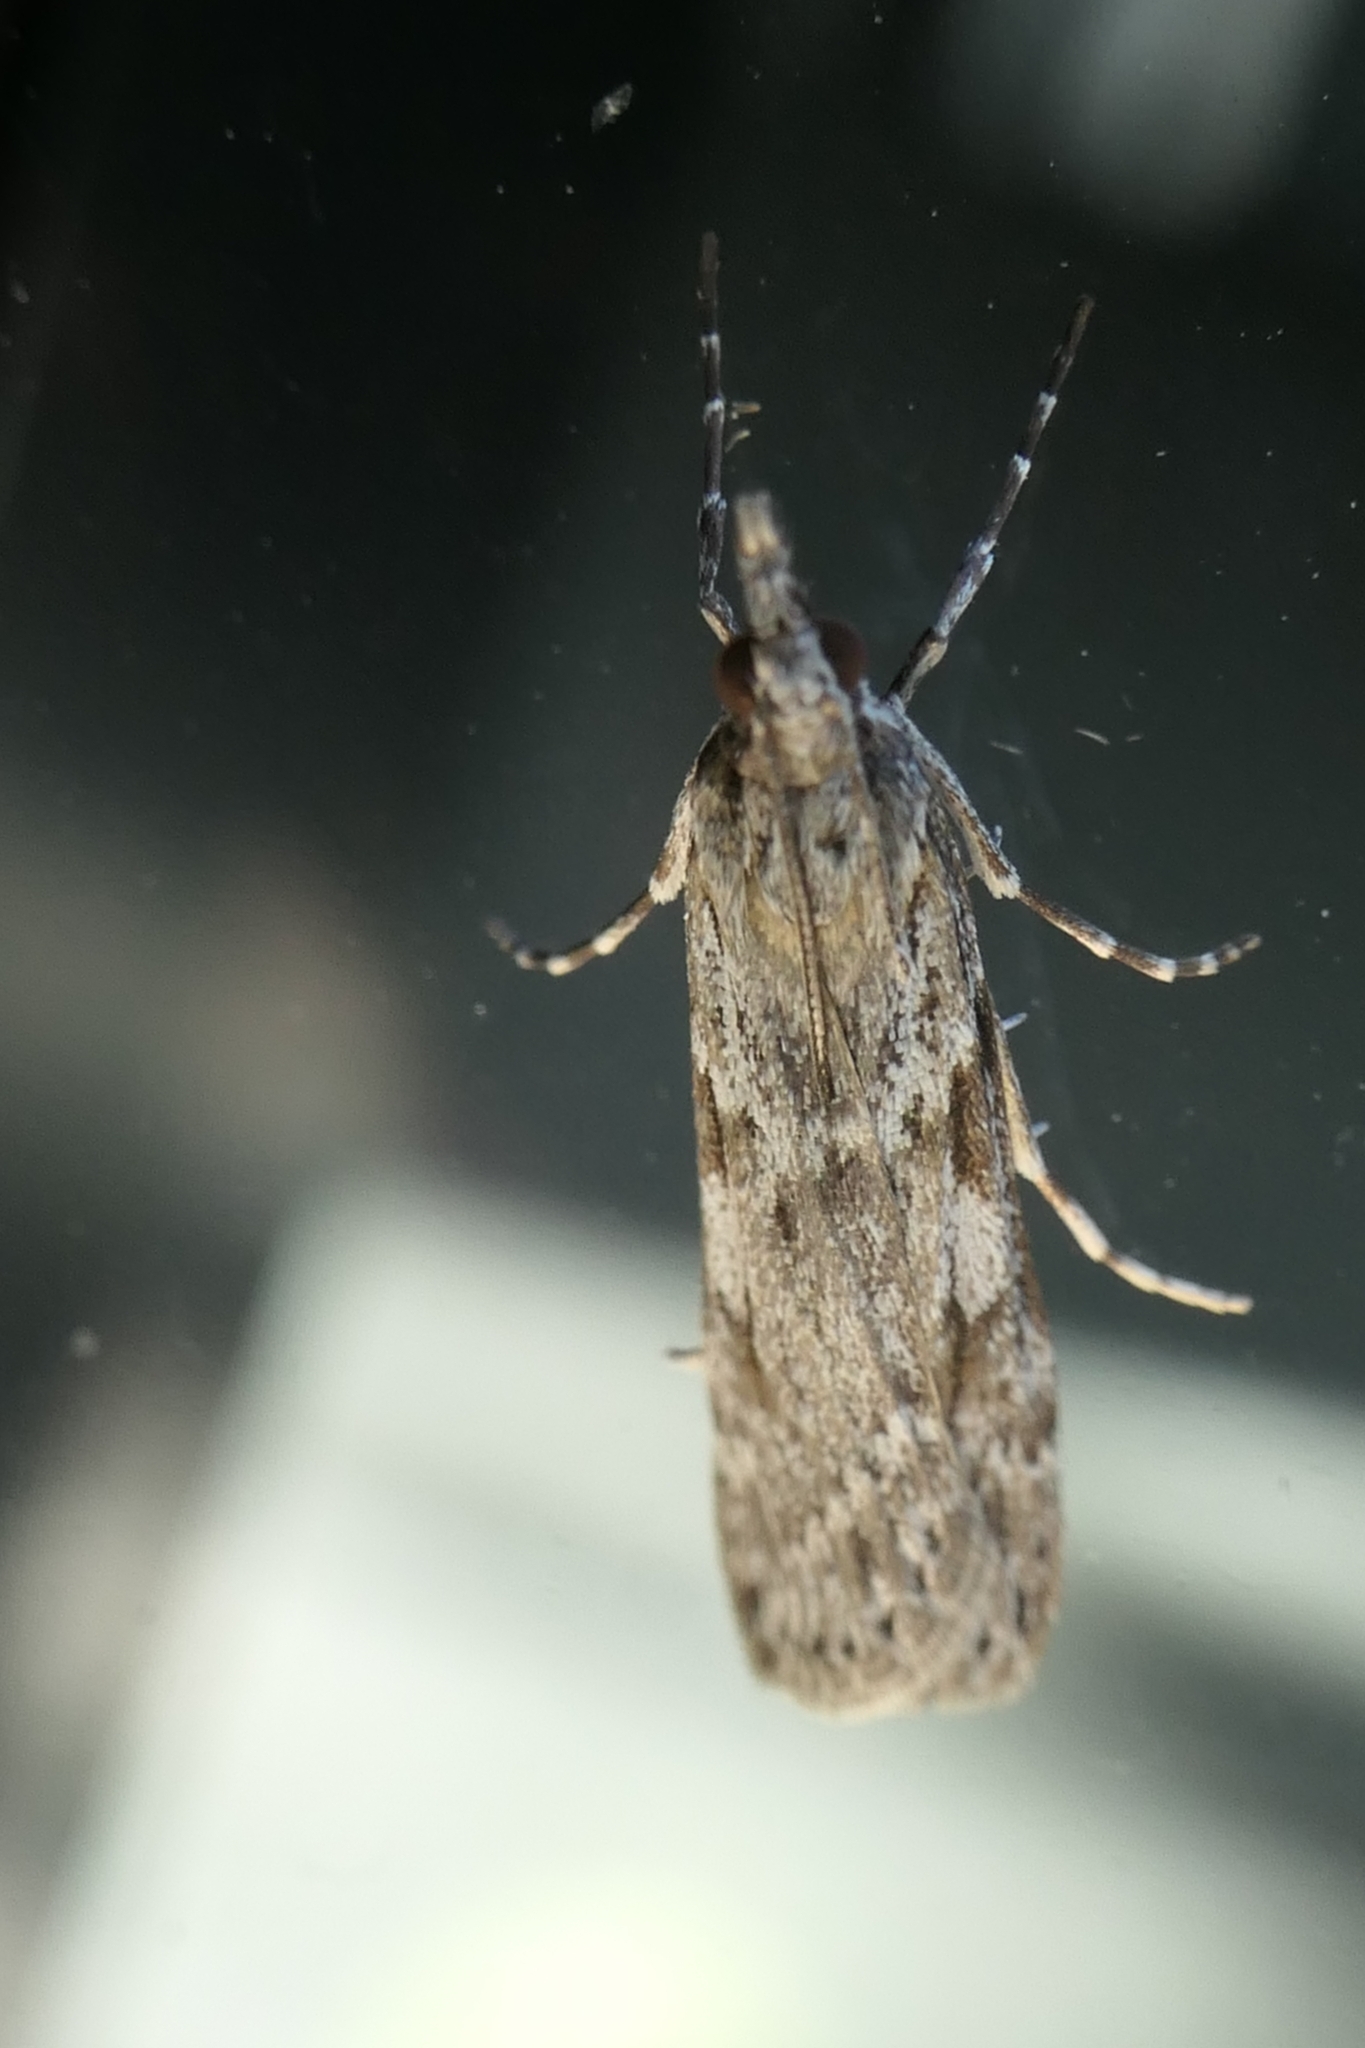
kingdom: Animalia
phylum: Arthropoda
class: Insecta
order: Lepidoptera
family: Crambidae
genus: Scoparia
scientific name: Scoparia halopis
